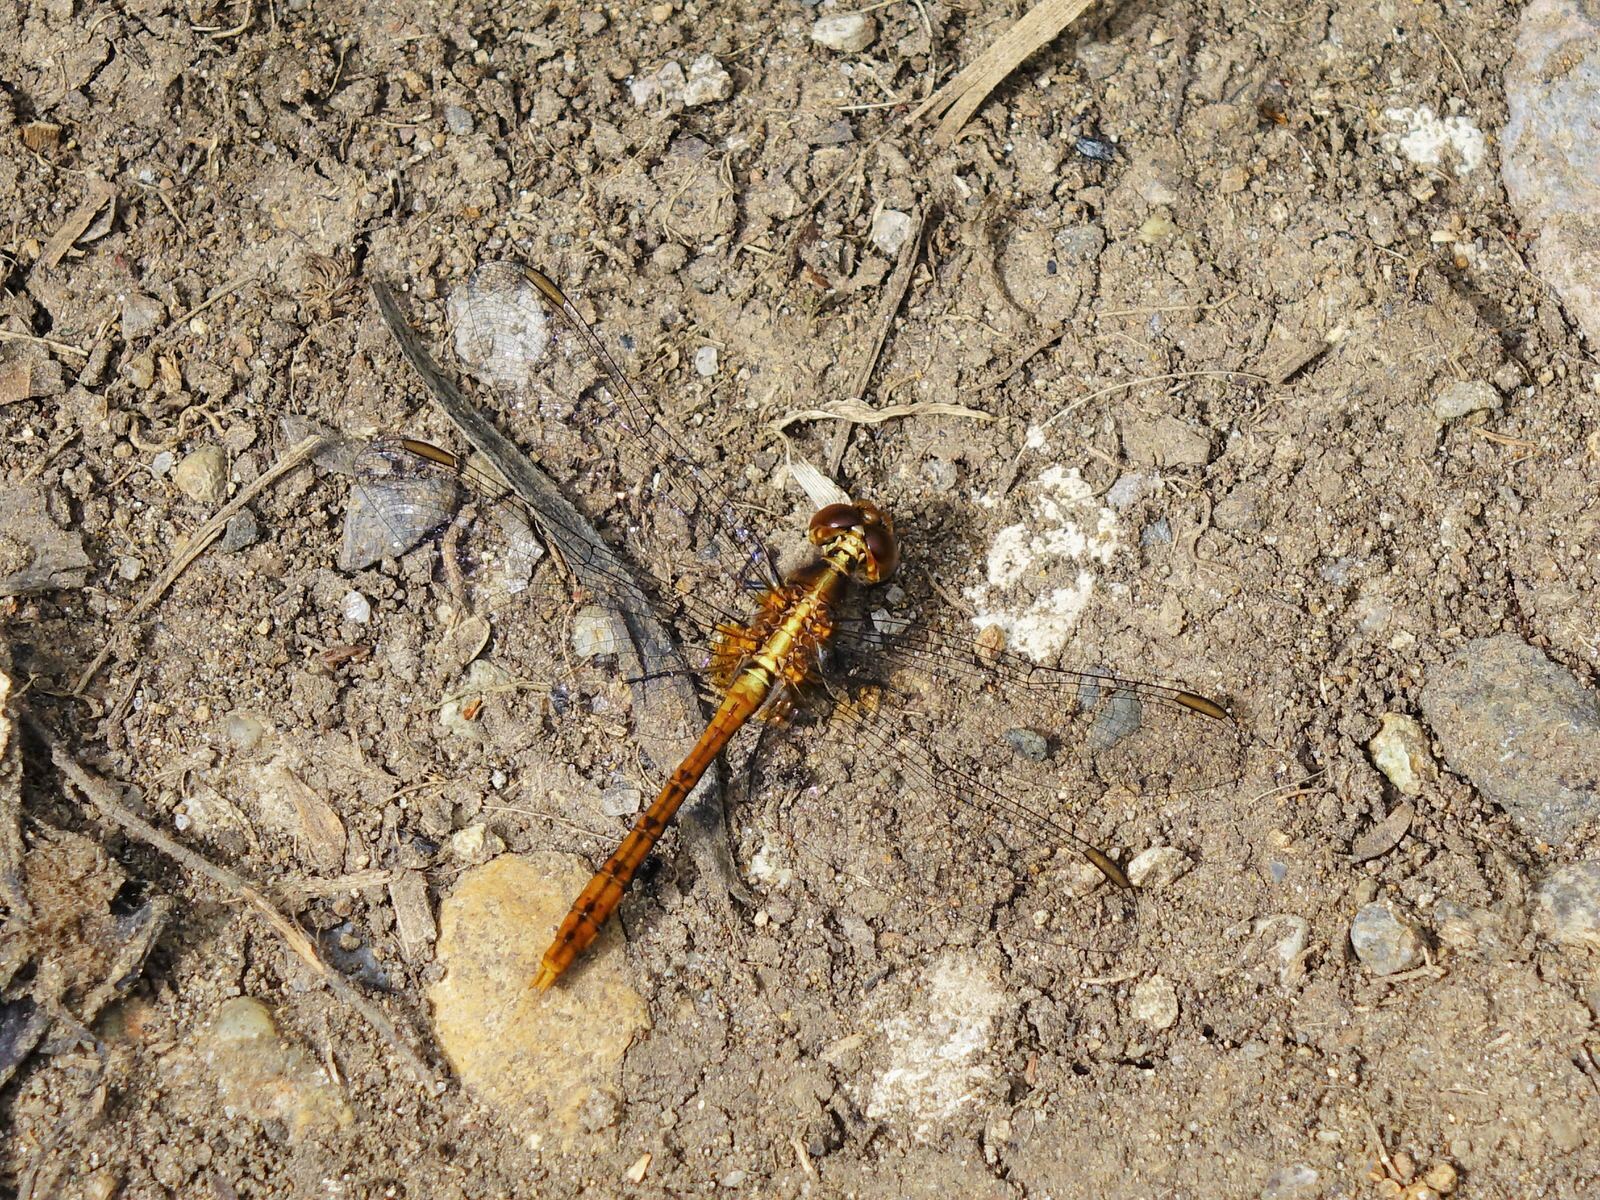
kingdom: Animalia
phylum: Arthropoda
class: Insecta
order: Odonata
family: Libellulidae
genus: Diplacodes
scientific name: Diplacodes bipunctata
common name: Red percher dragonfly
